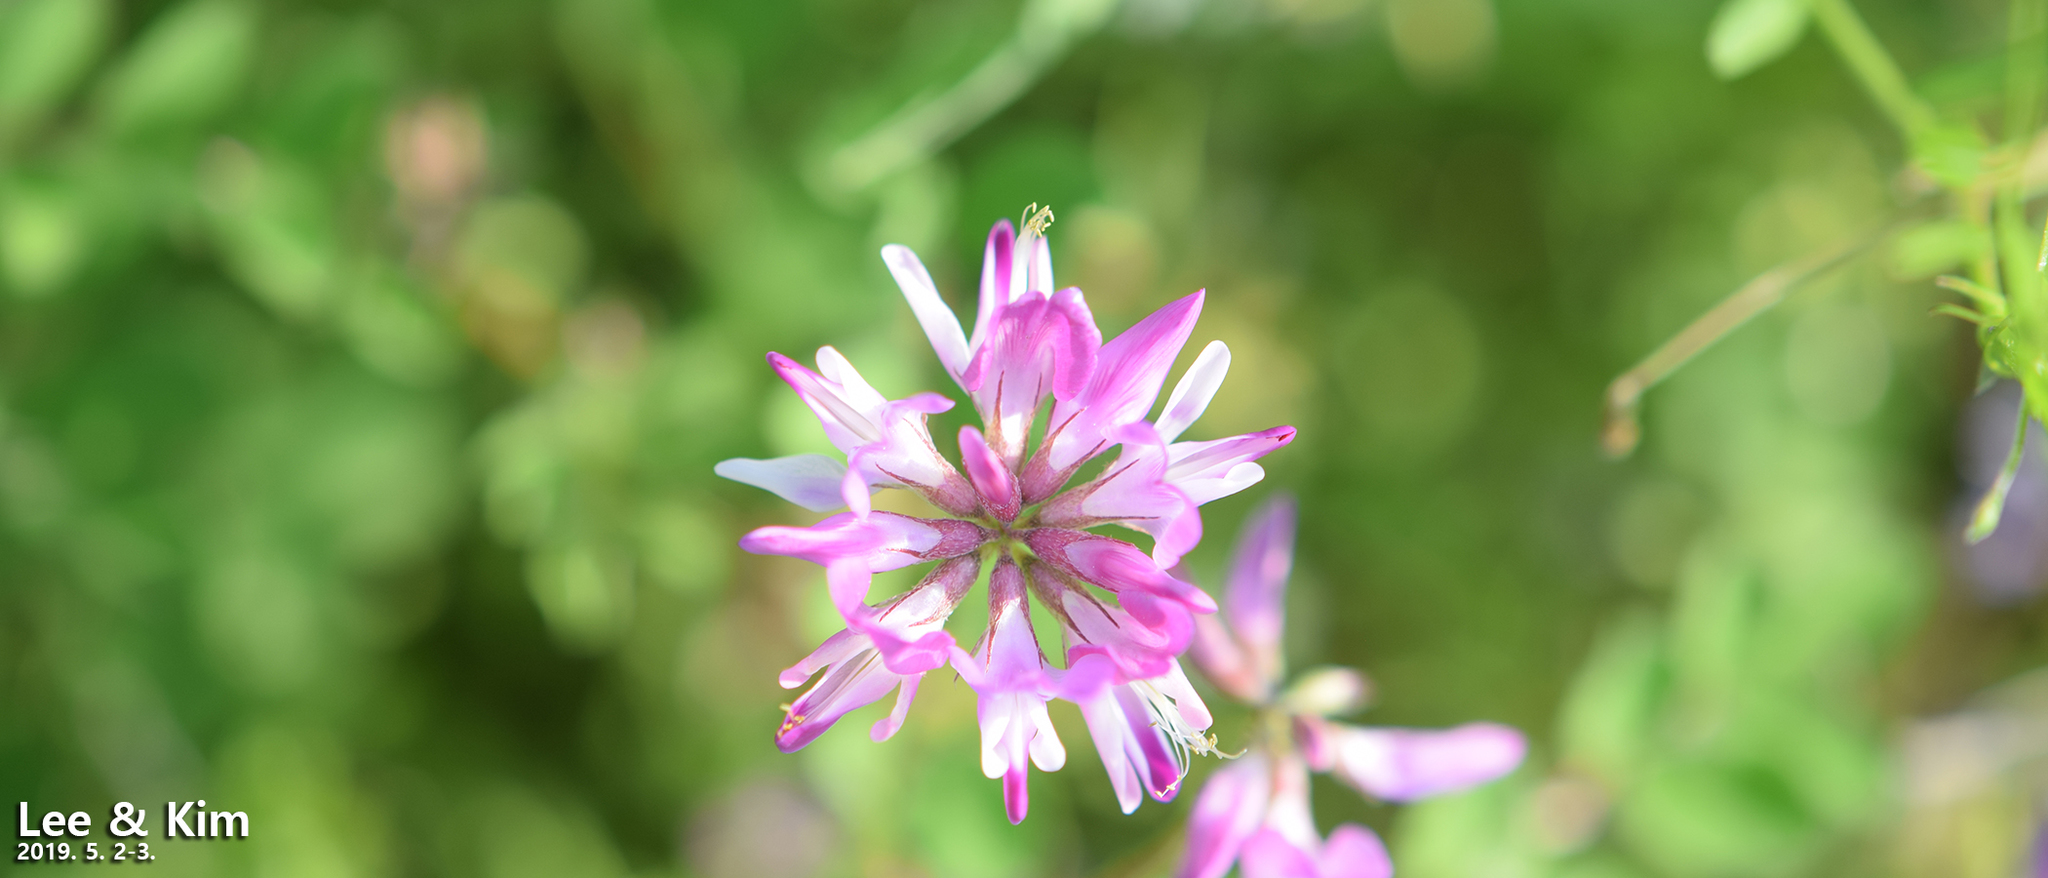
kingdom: Plantae
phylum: Tracheophyta
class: Magnoliopsida
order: Fabales
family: Fabaceae
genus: Astragalus
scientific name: Astragalus sinicus
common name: Chinese milk-vetch
